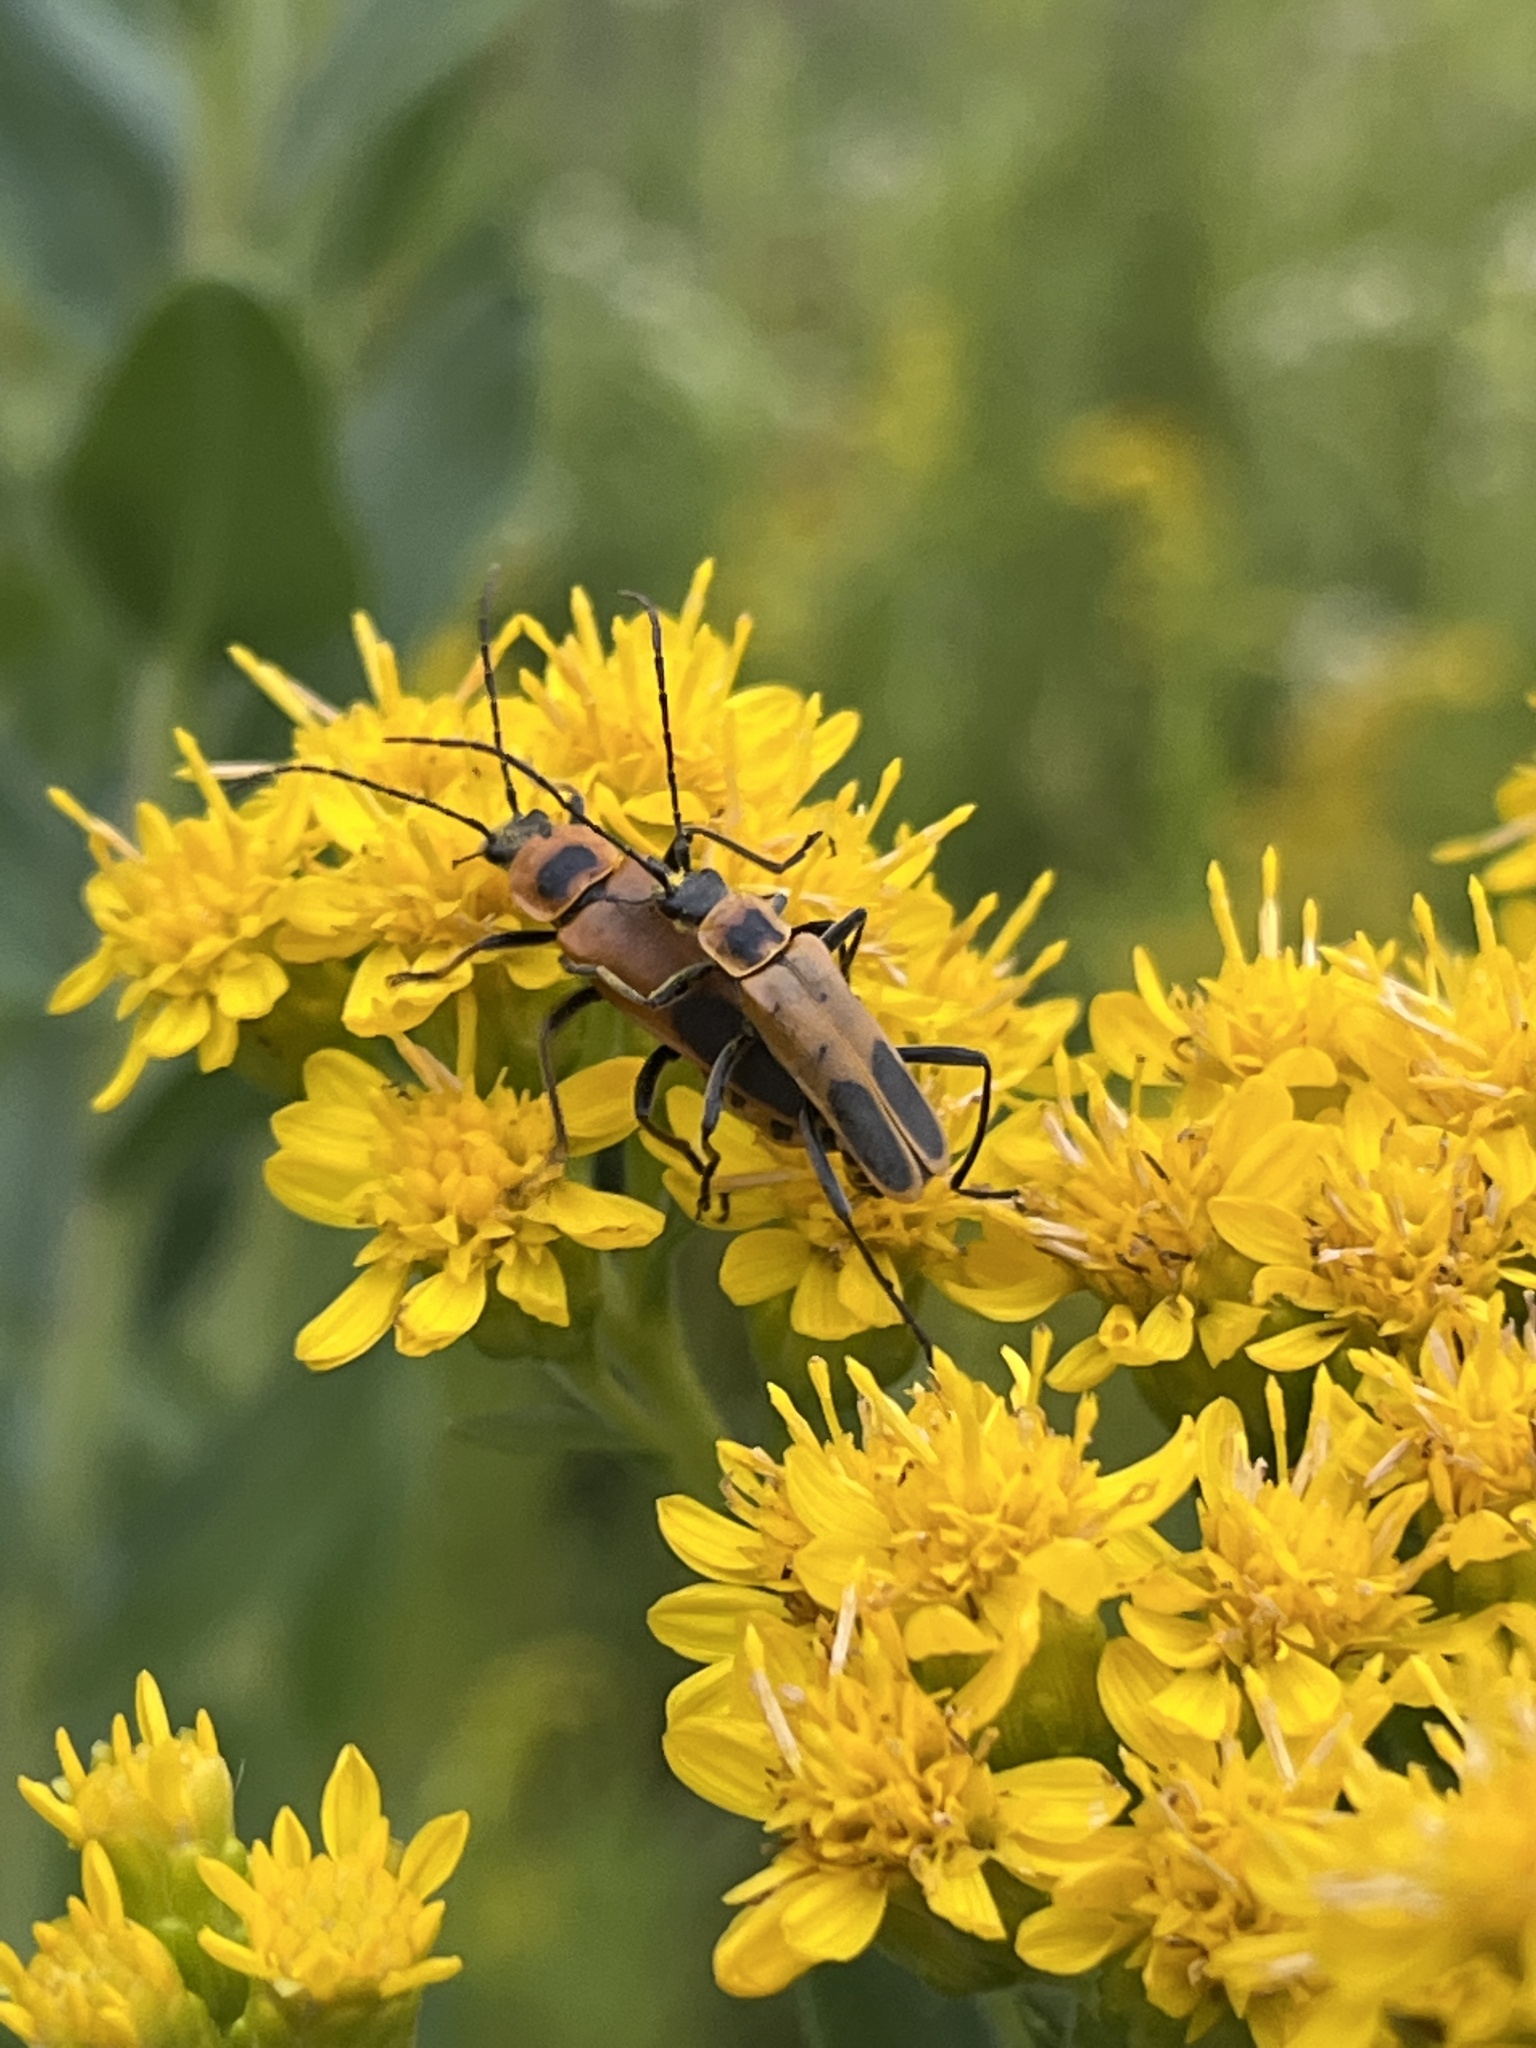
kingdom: Animalia
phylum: Arthropoda
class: Insecta
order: Coleoptera
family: Cantharidae
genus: Chauliognathus
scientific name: Chauliognathus pensylvanicus
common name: Goldenrod soldier beetle
